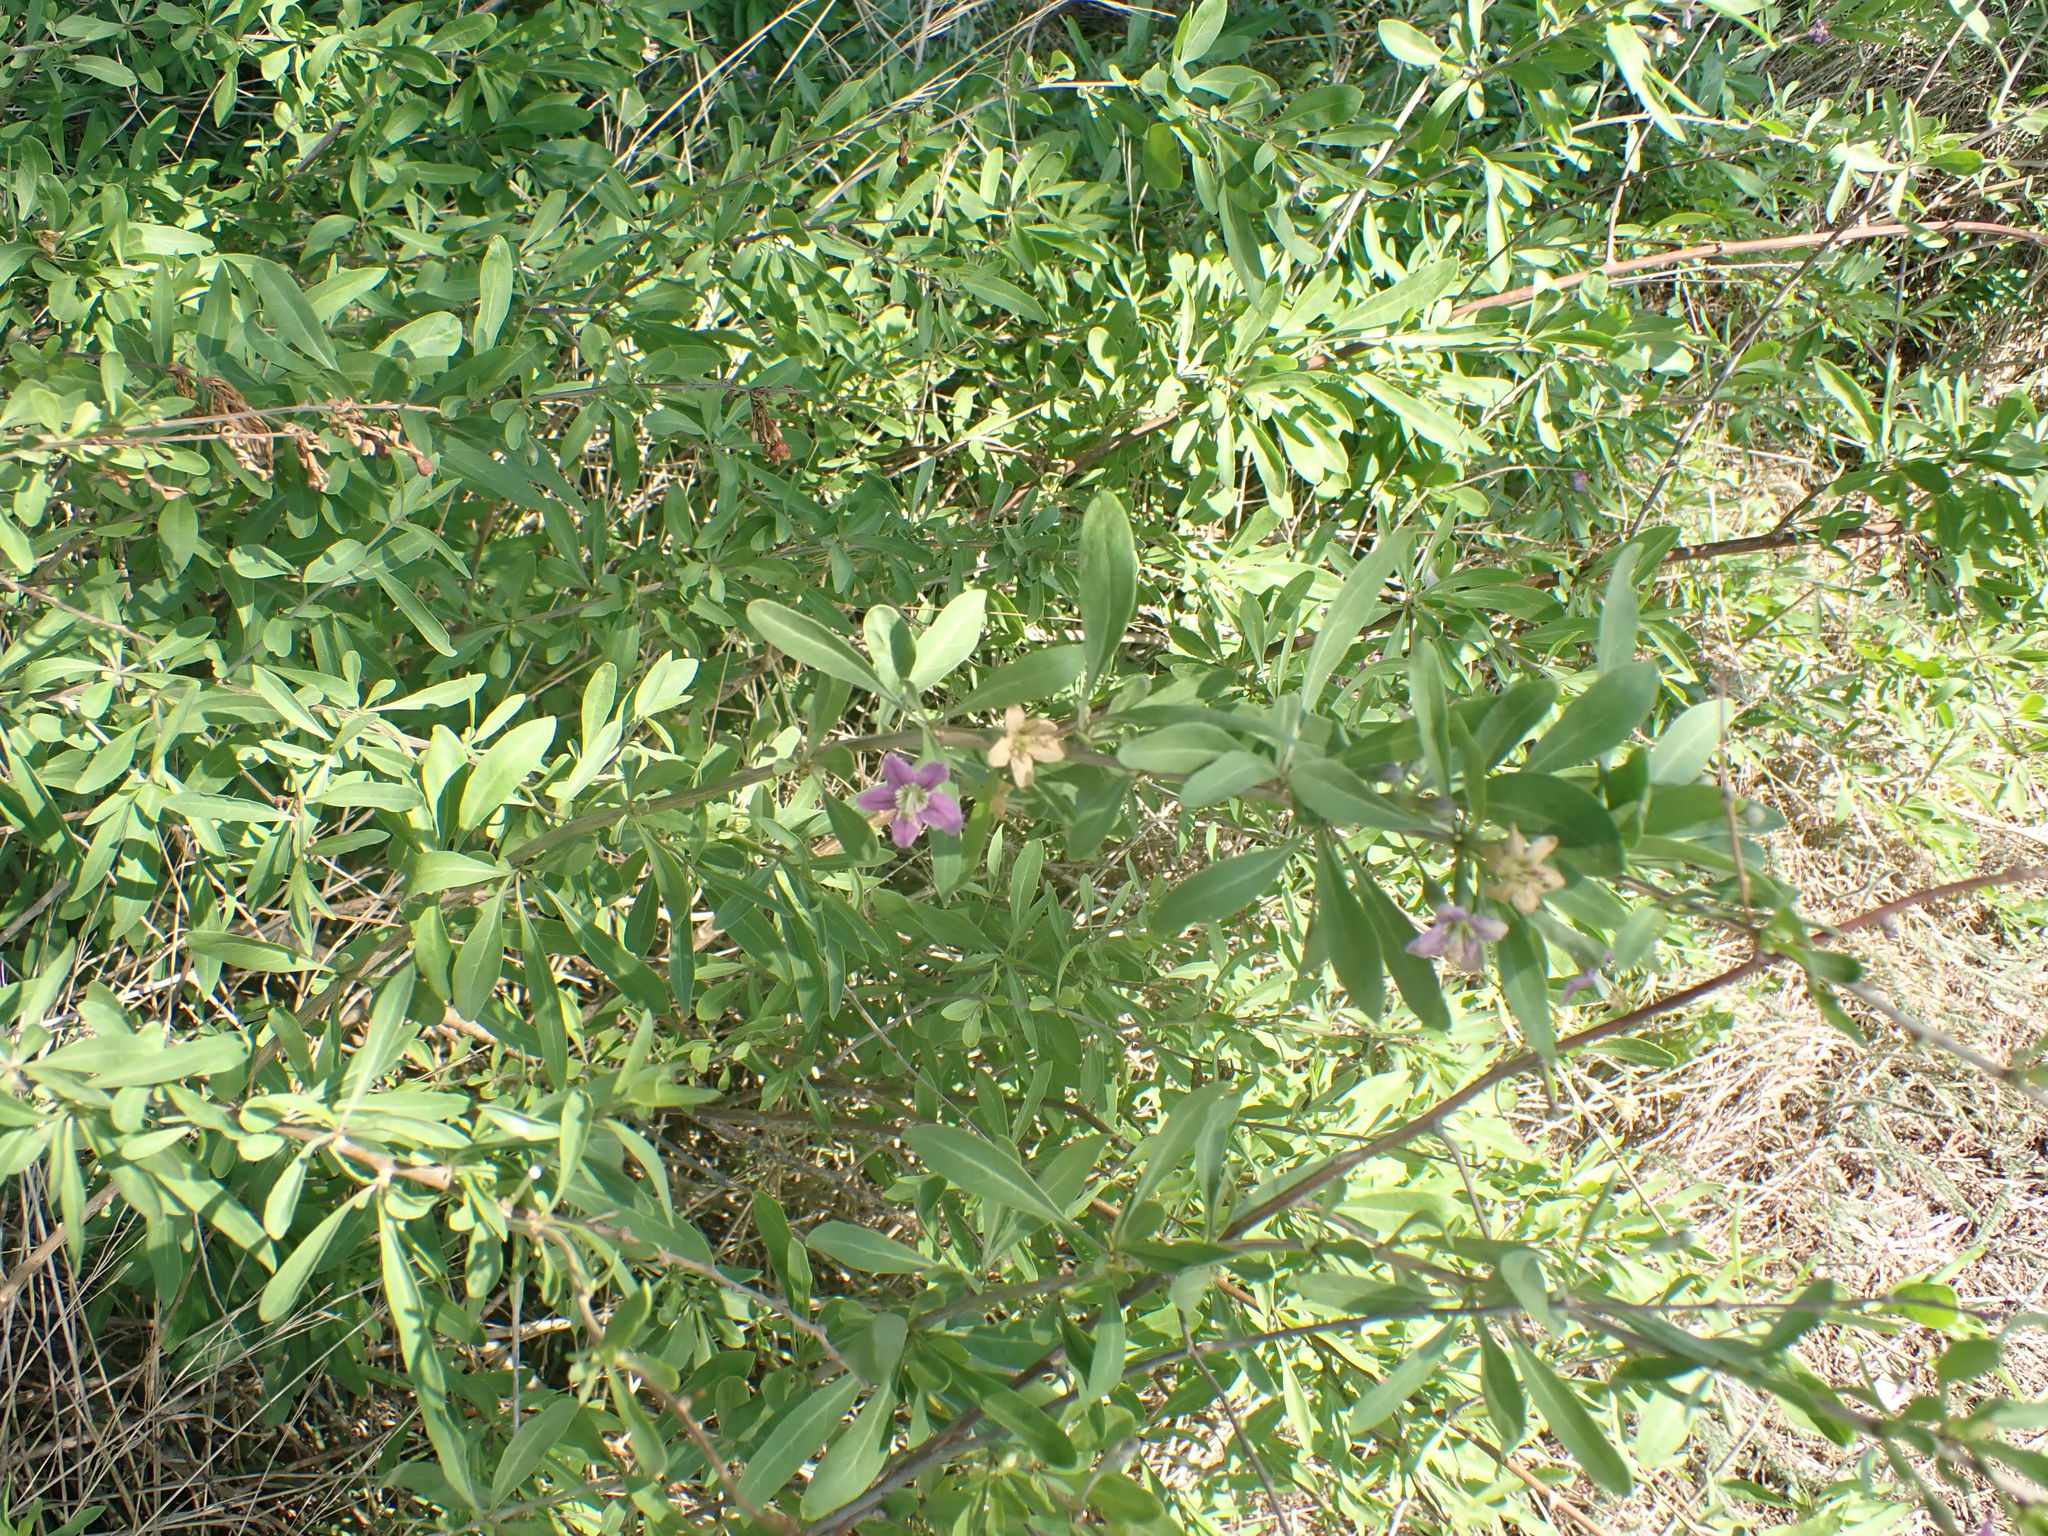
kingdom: Plantae
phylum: Tracheophyta
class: Magnoliopsida
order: Solanales
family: Solanaceae
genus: Lycium
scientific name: Lycium barbarum
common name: Duke of argyll's teaplant
